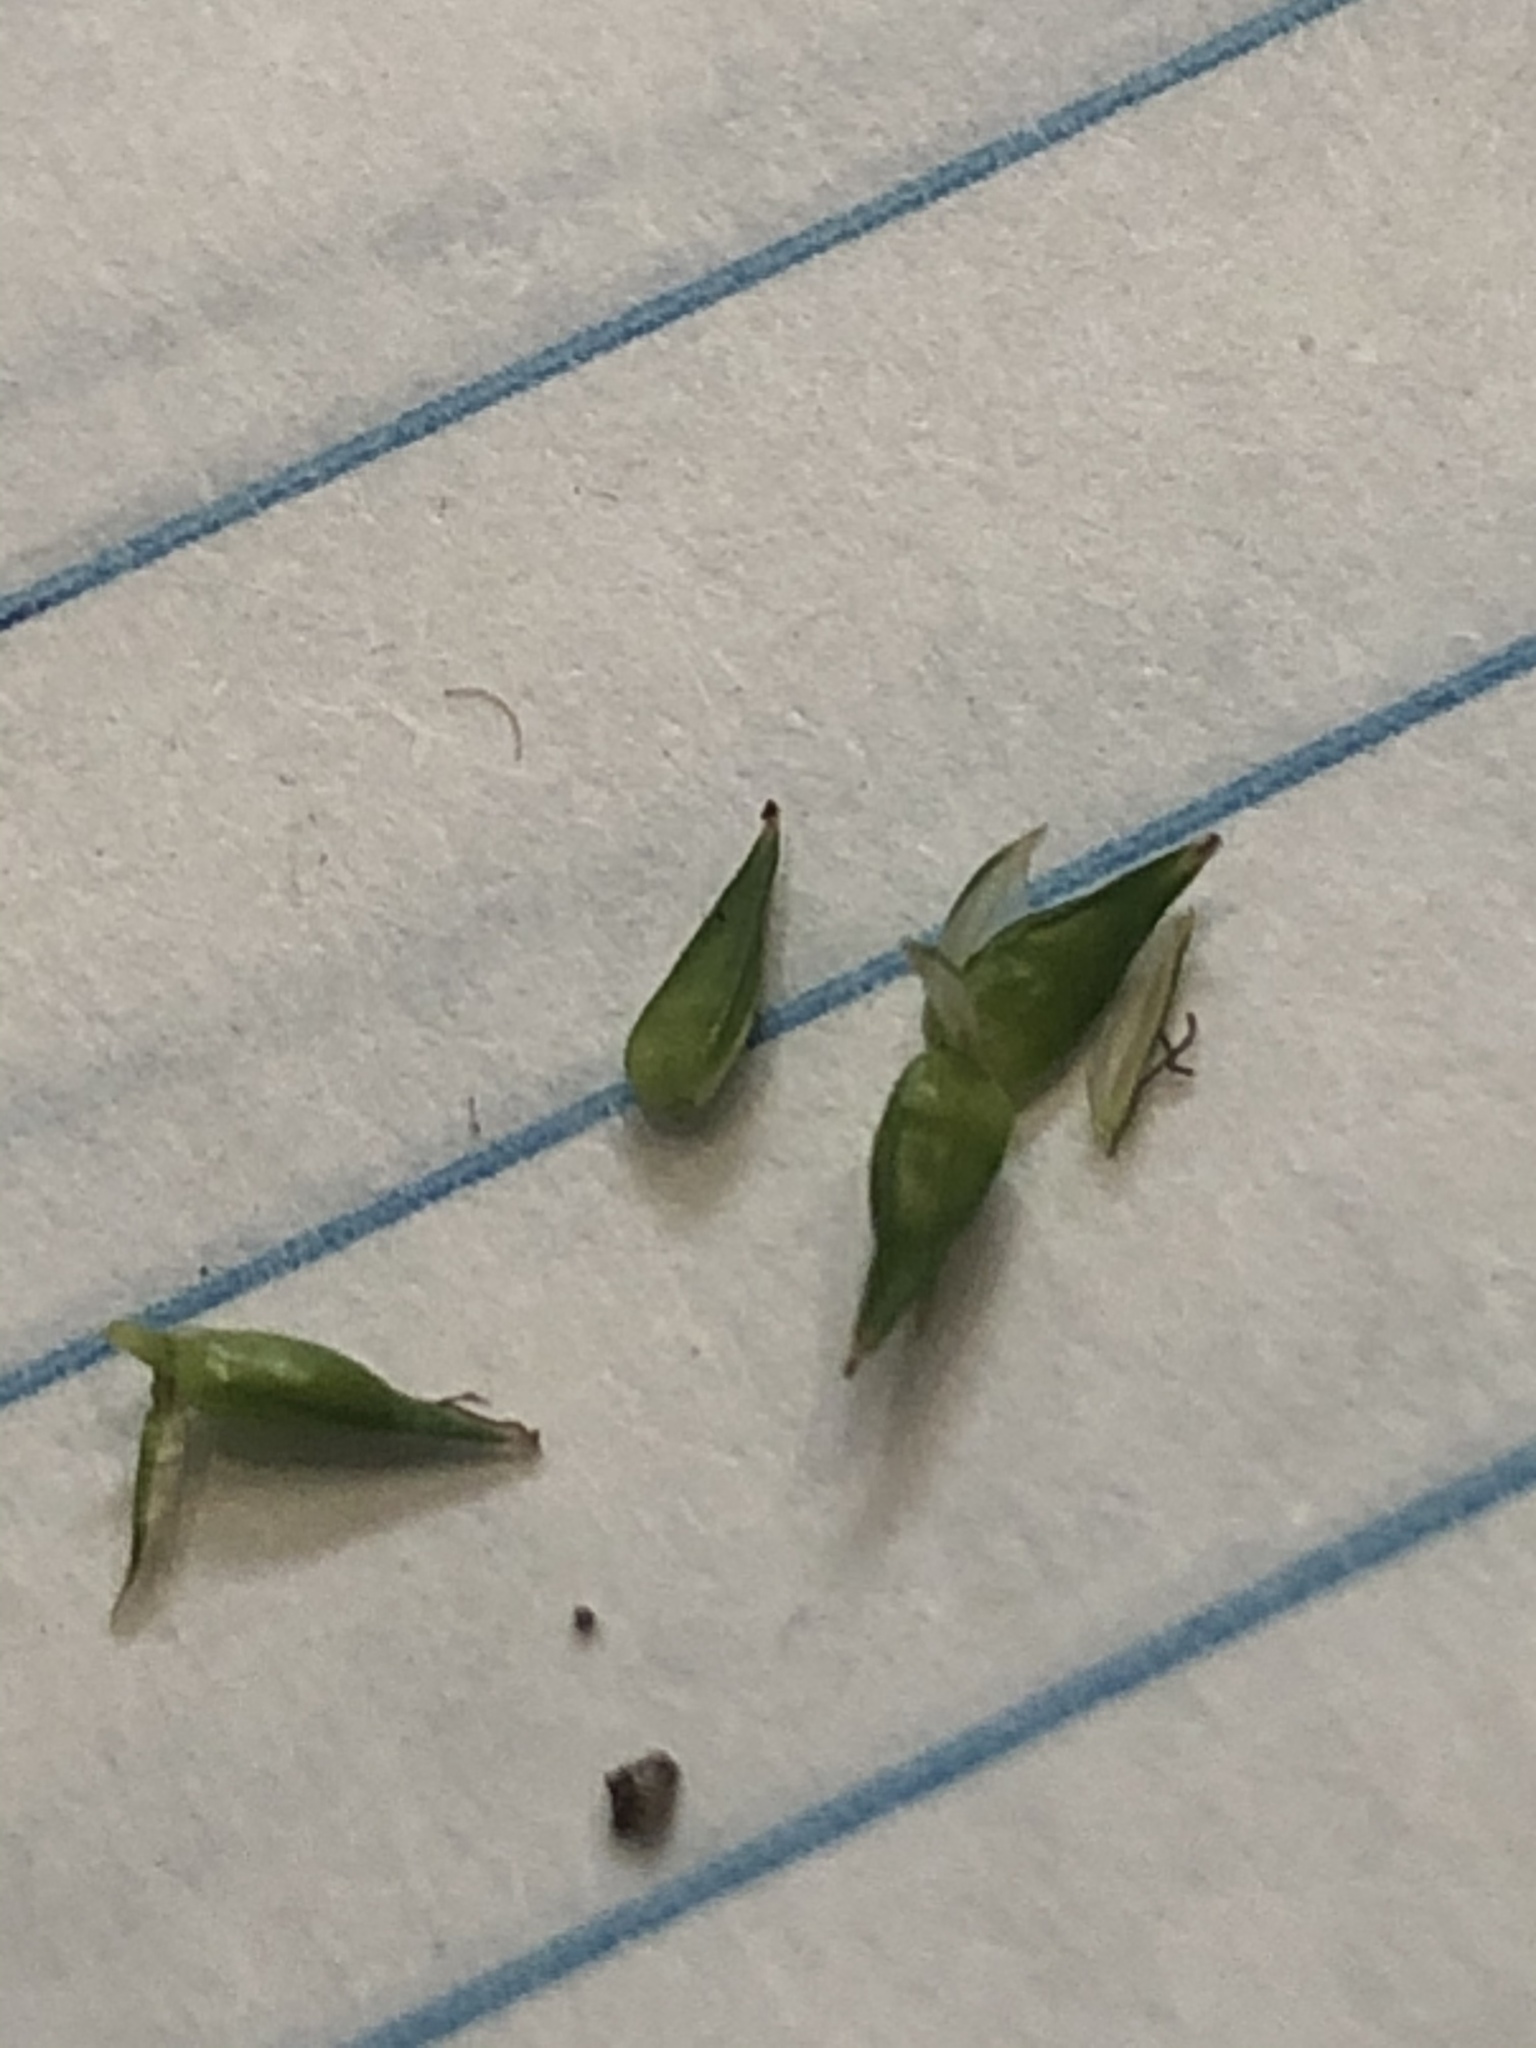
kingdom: Plantae
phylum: Tracheophyta
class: Liliopsida
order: Poales
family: Cyperaceae
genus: Carex
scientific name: Carex texensis
